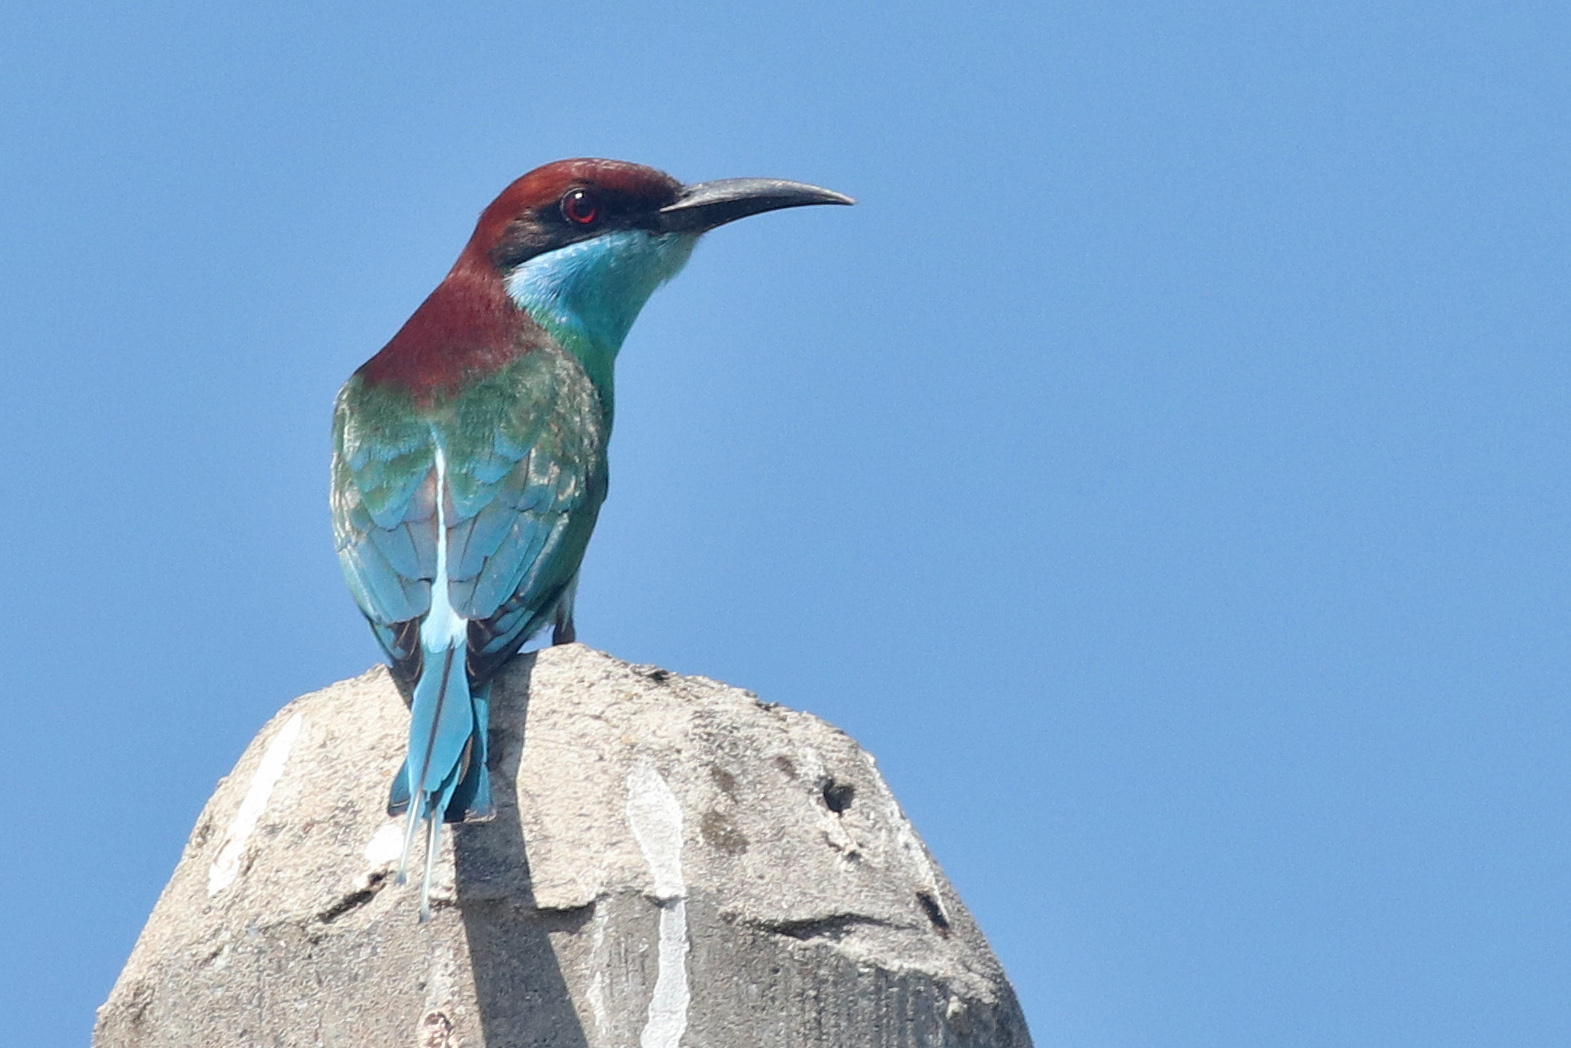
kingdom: Animalia
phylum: Chordata
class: Aves
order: Coraciiformes
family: Meropidae
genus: Merops
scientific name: Merops viridis
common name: Blue-throated bee-eater
